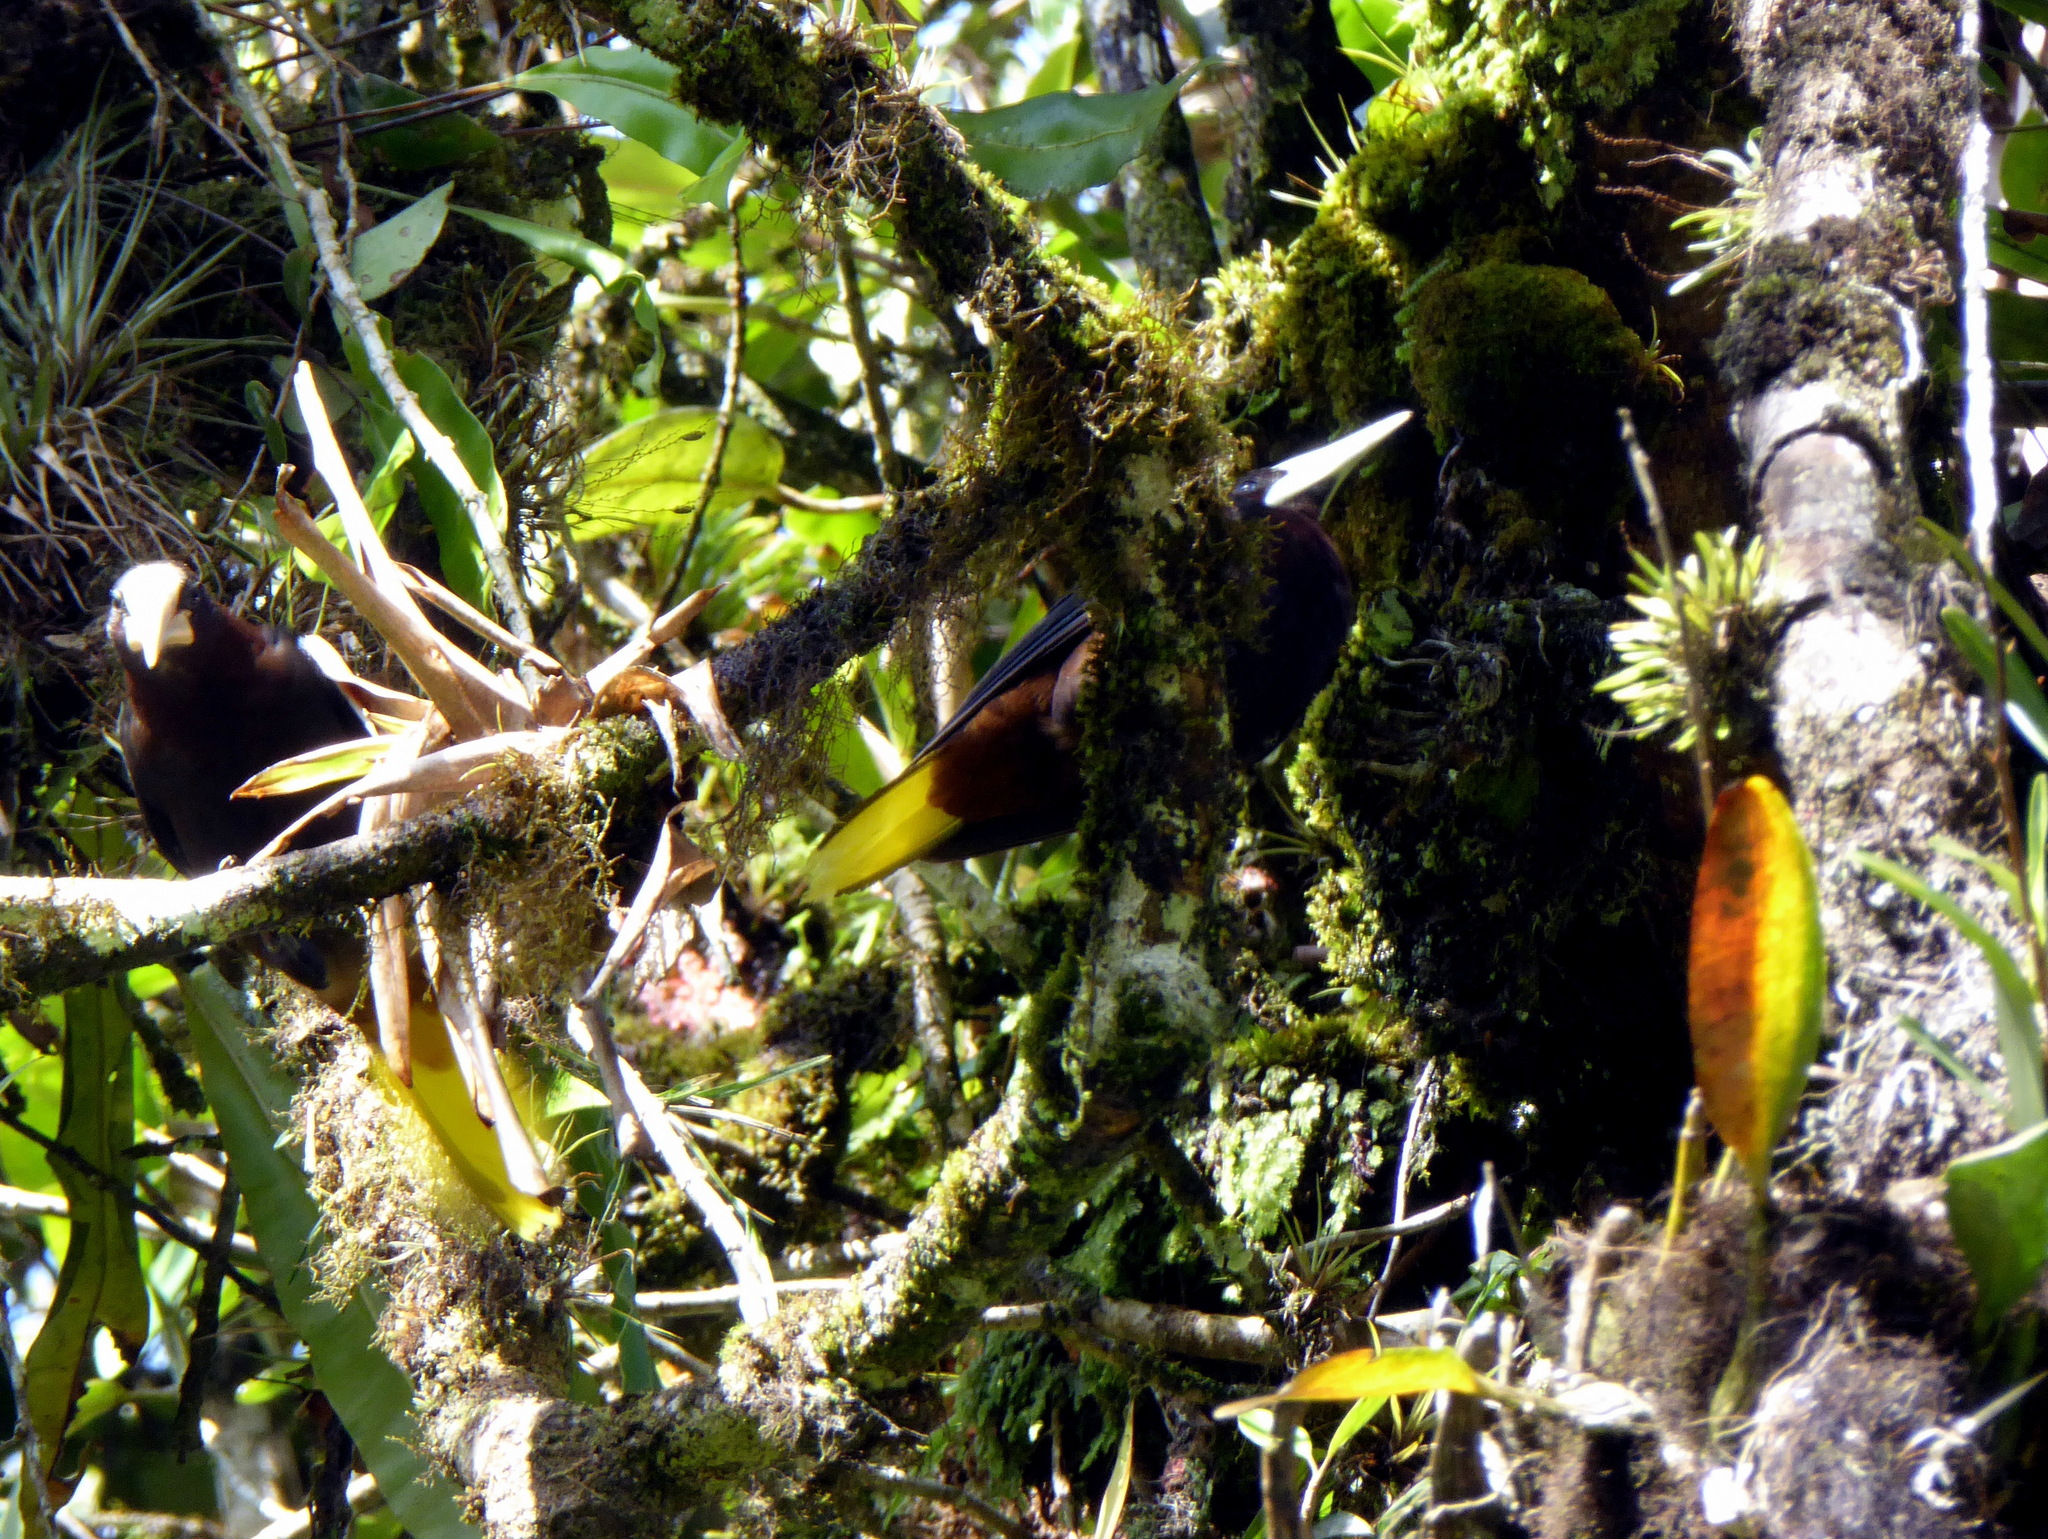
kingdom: Animalia
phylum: Chordata
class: Aves
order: Passeriformes
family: Icteridae
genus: Psarocolius
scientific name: Psarocolius wagleri
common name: Chestnut-headed oropendola
